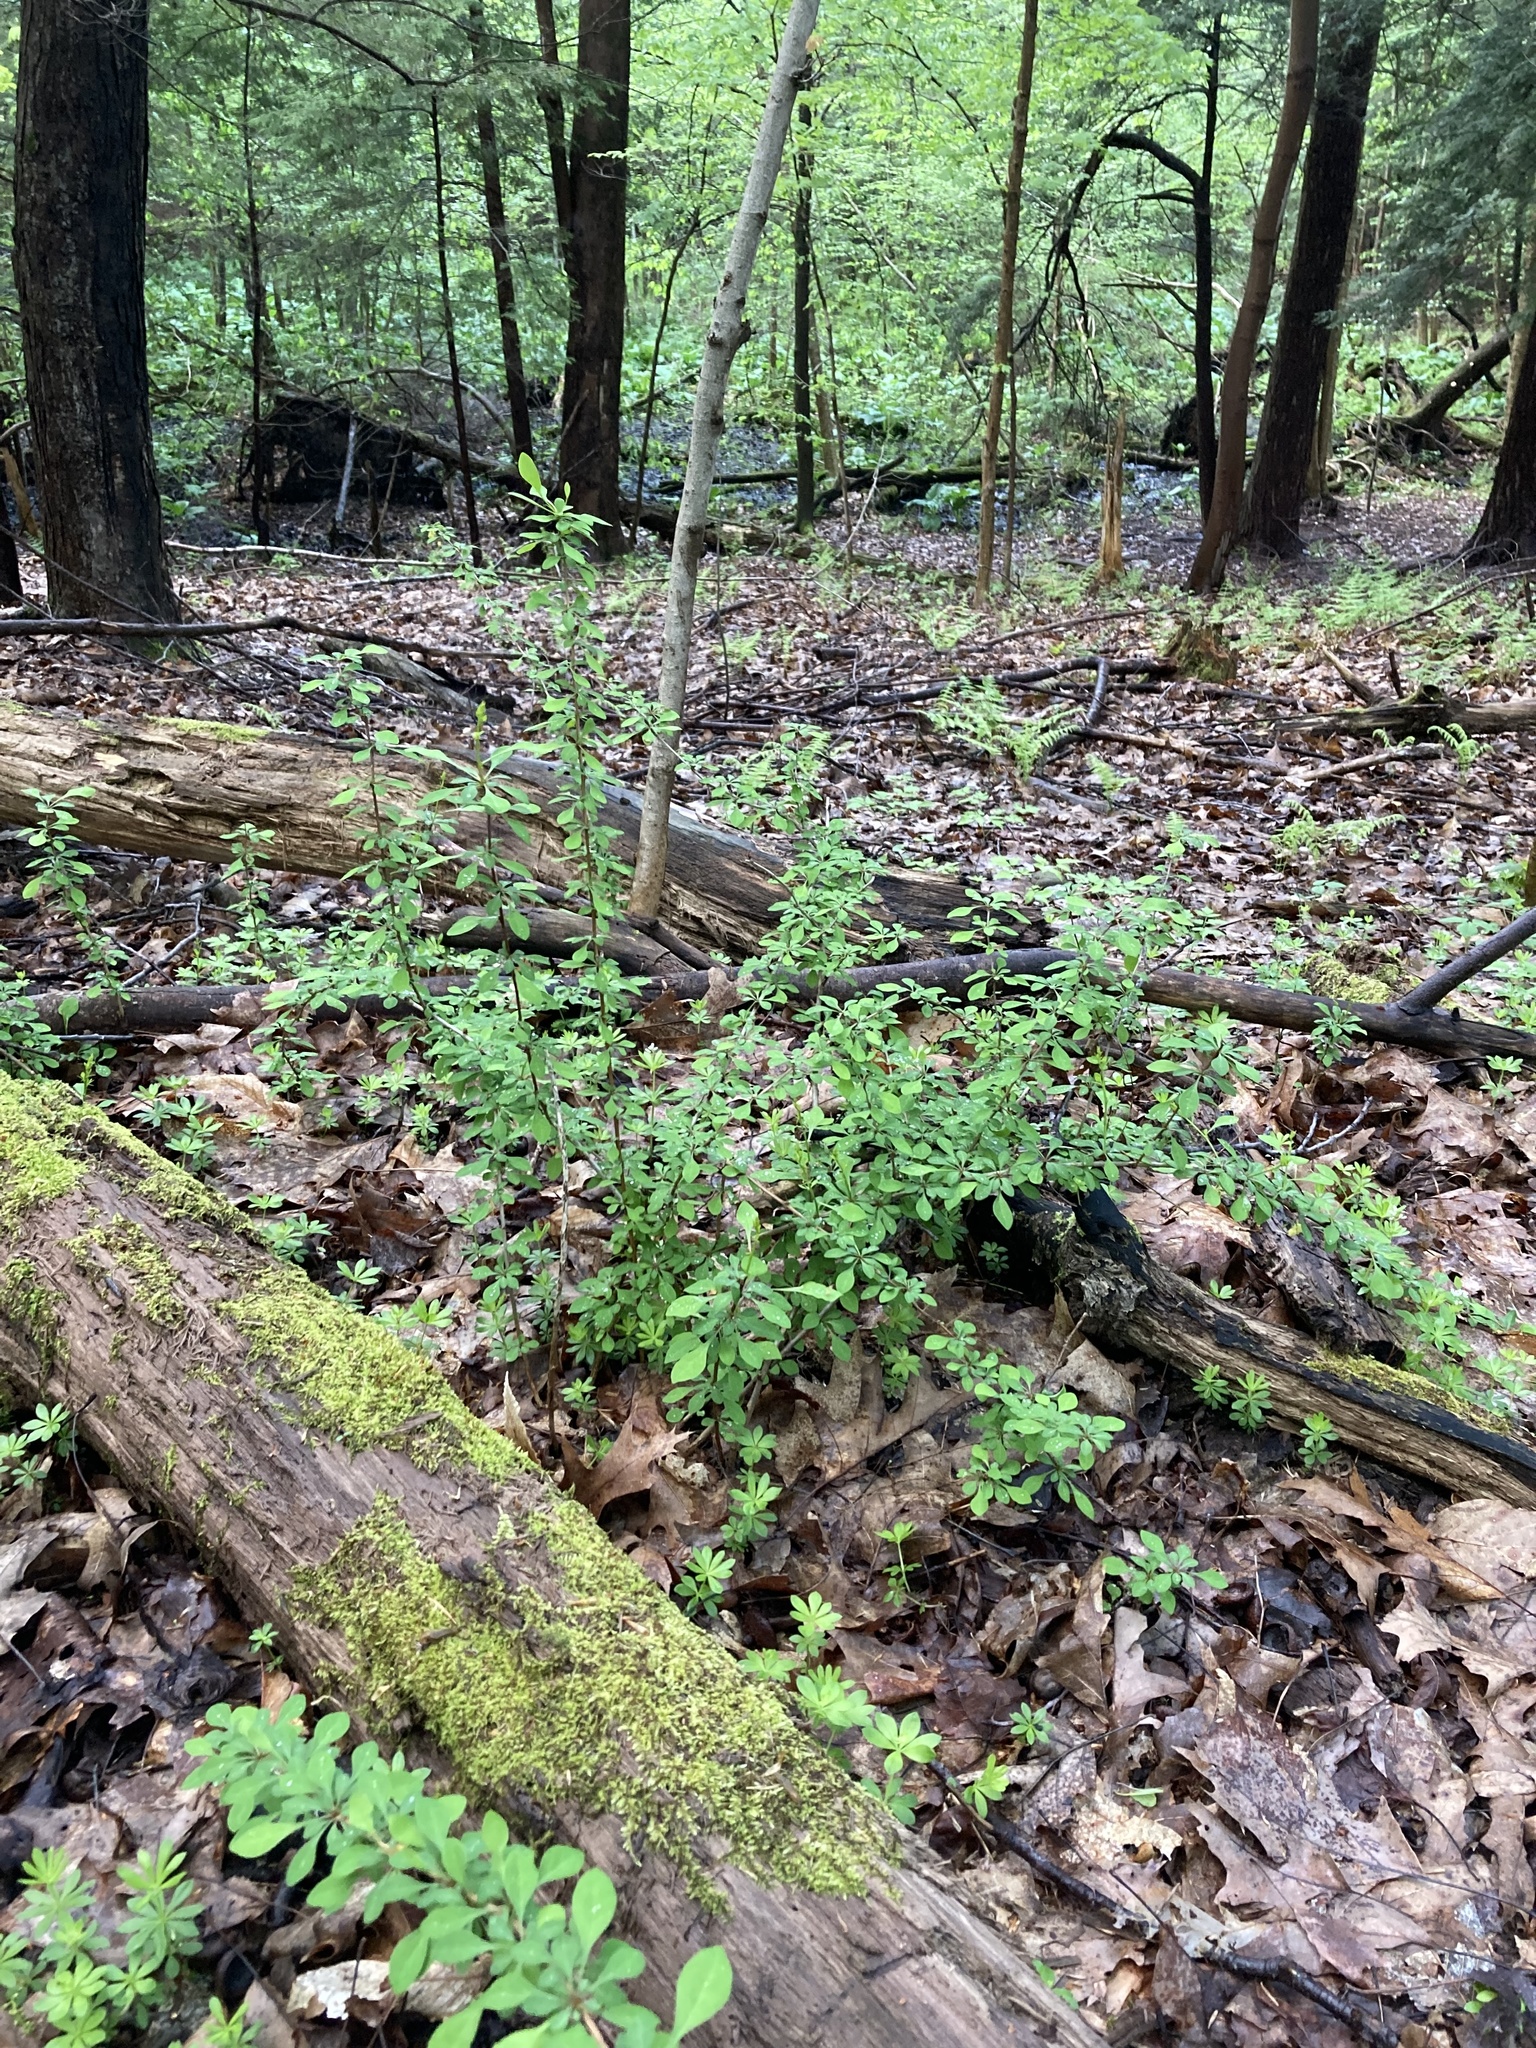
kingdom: Plantae
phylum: Tracheophyta
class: Magnoliopsida
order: Ranunculales
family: Berberidaceae
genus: Berberis
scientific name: Berberis thunbergii
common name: Japanese barberry
